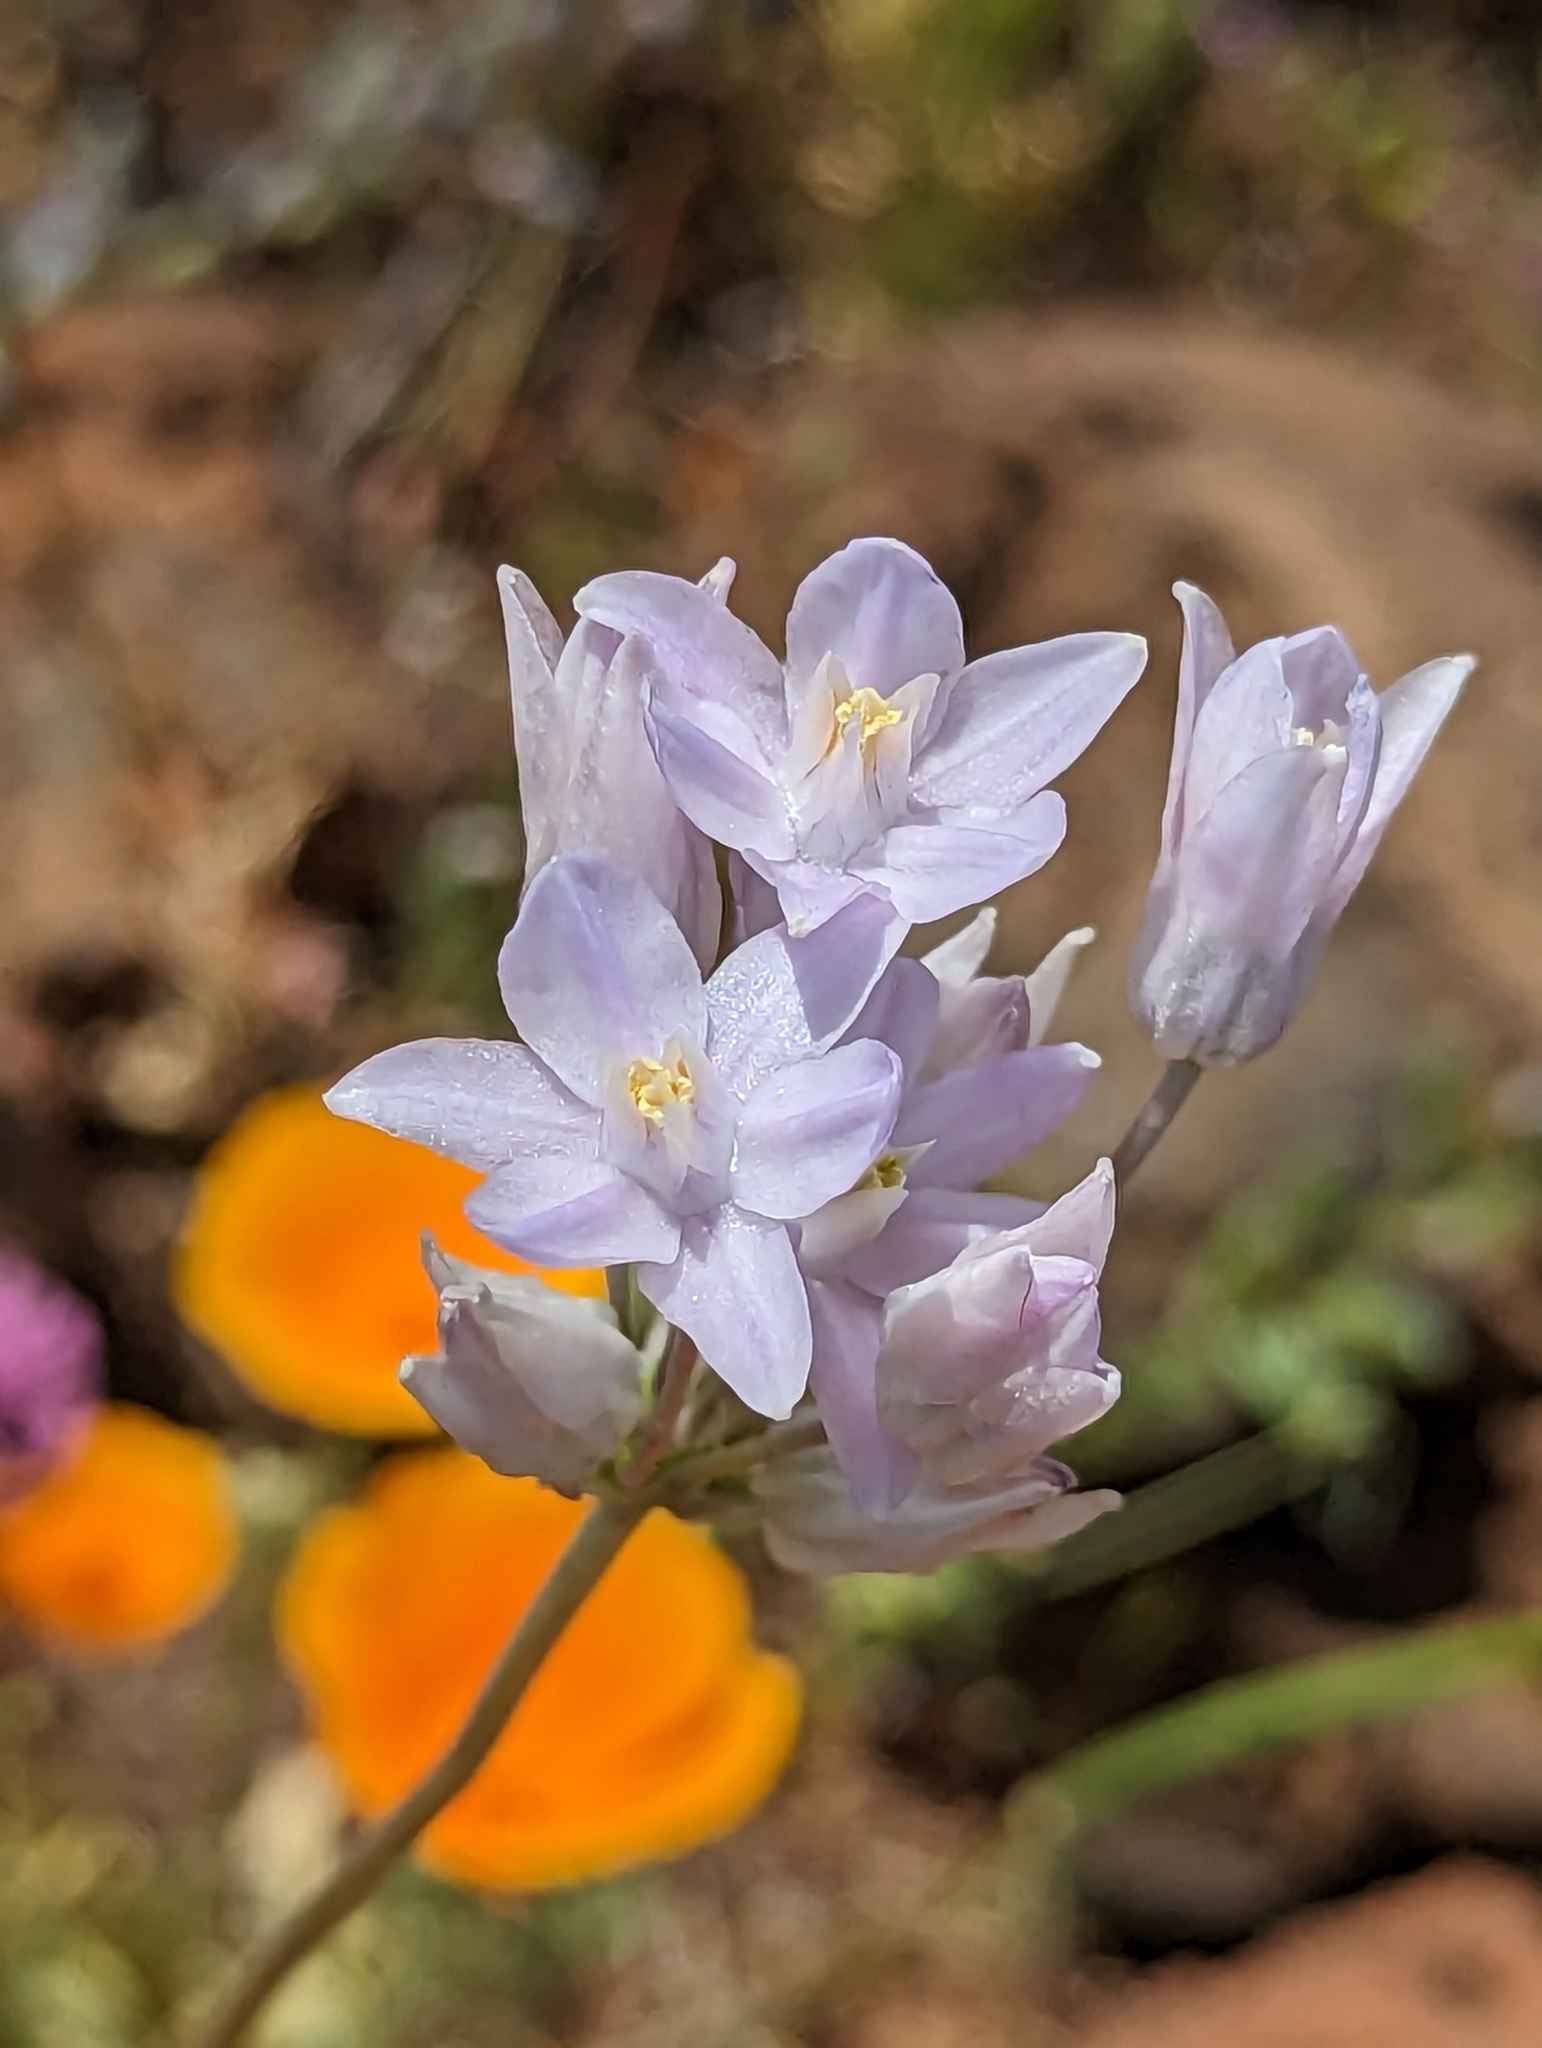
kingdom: Plantae
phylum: Tracheophyta
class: Liliopsida
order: Asparagales
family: Asparagaceae
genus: Dipterostemon
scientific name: Dipterostemon capitatus
